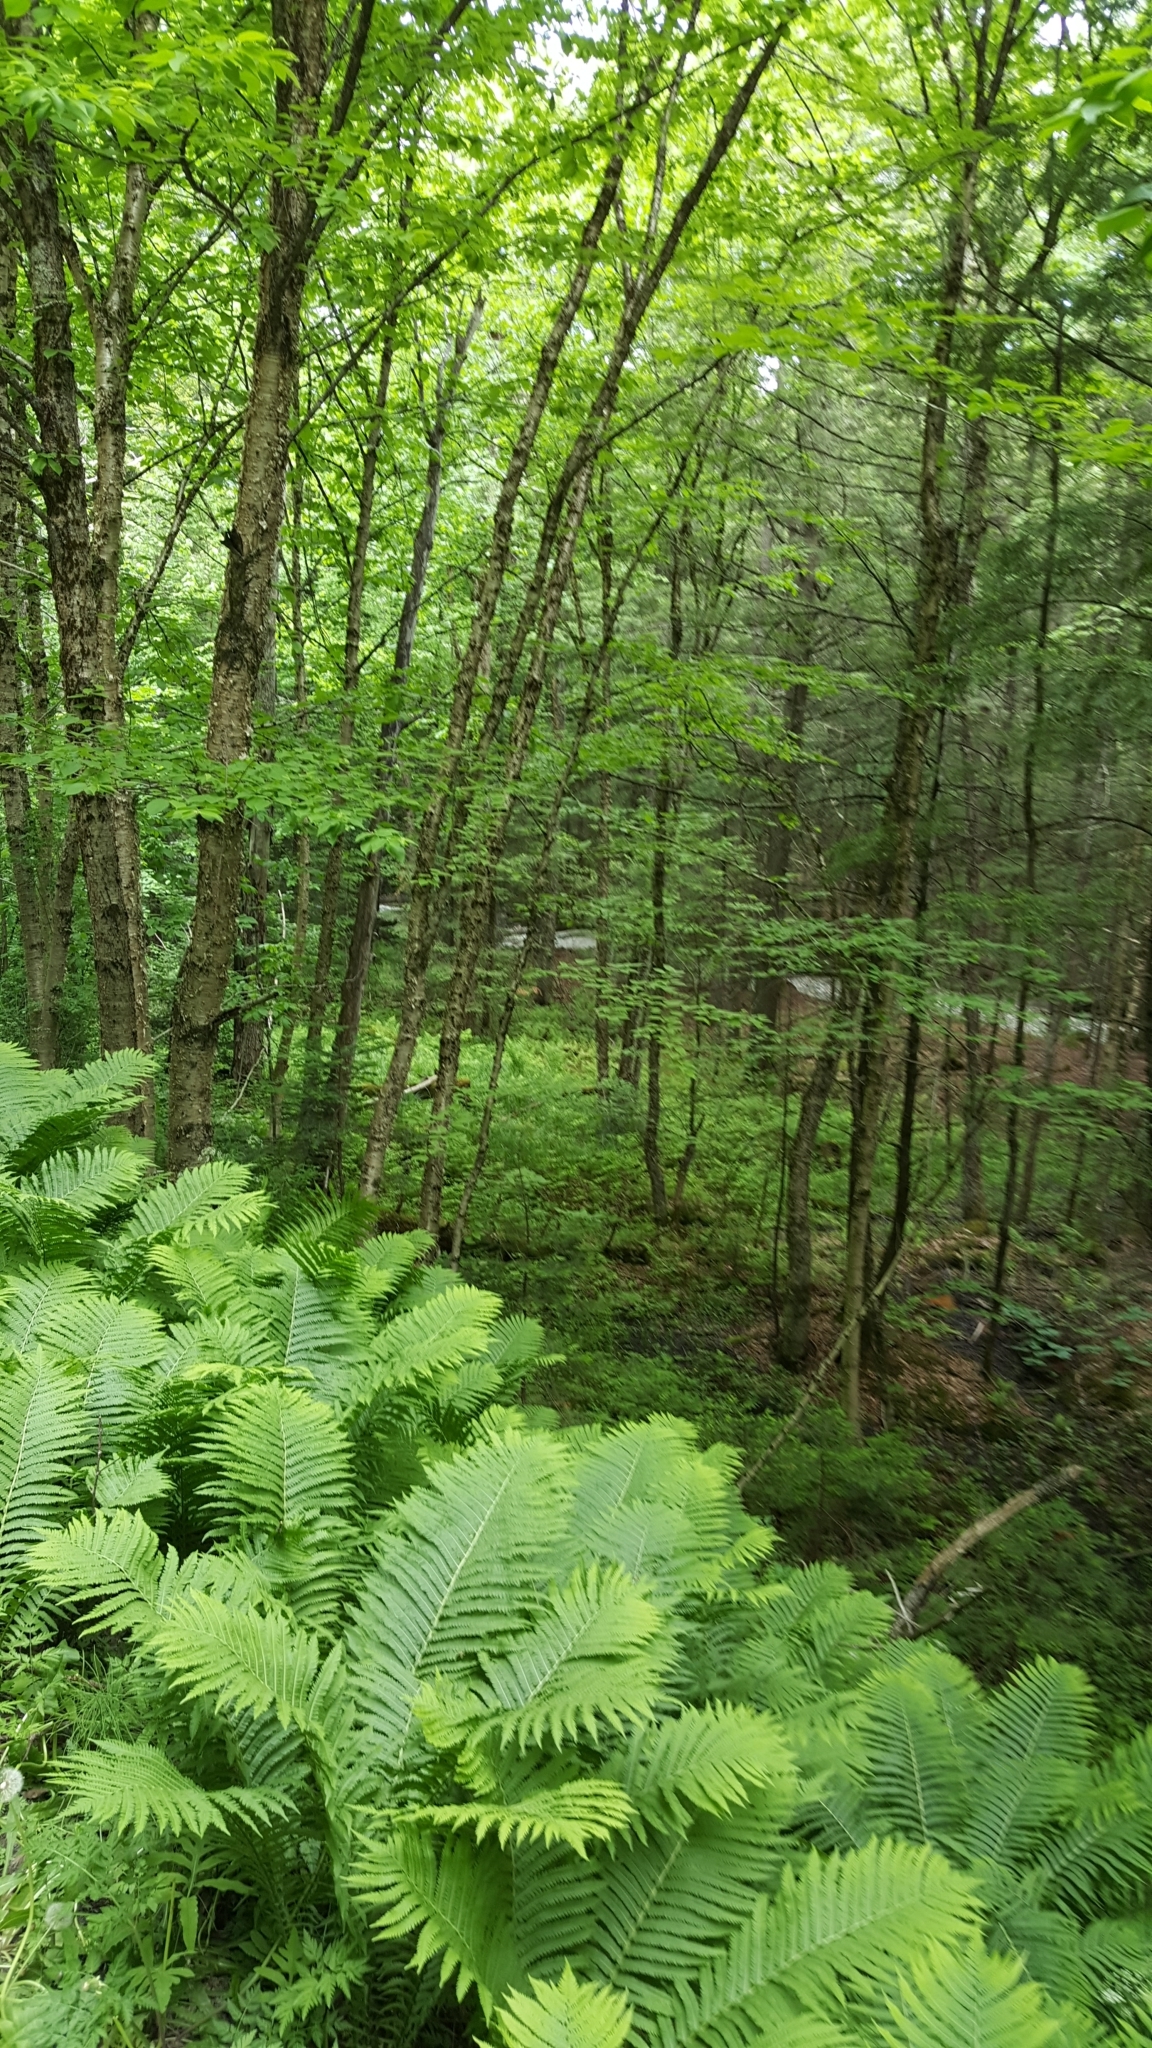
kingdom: Plantae
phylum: Tracheophyta
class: Magnoliopsida
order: Fagales
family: Betulaceae
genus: Betula
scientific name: Betula alleghaniensis
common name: Yellow birch
